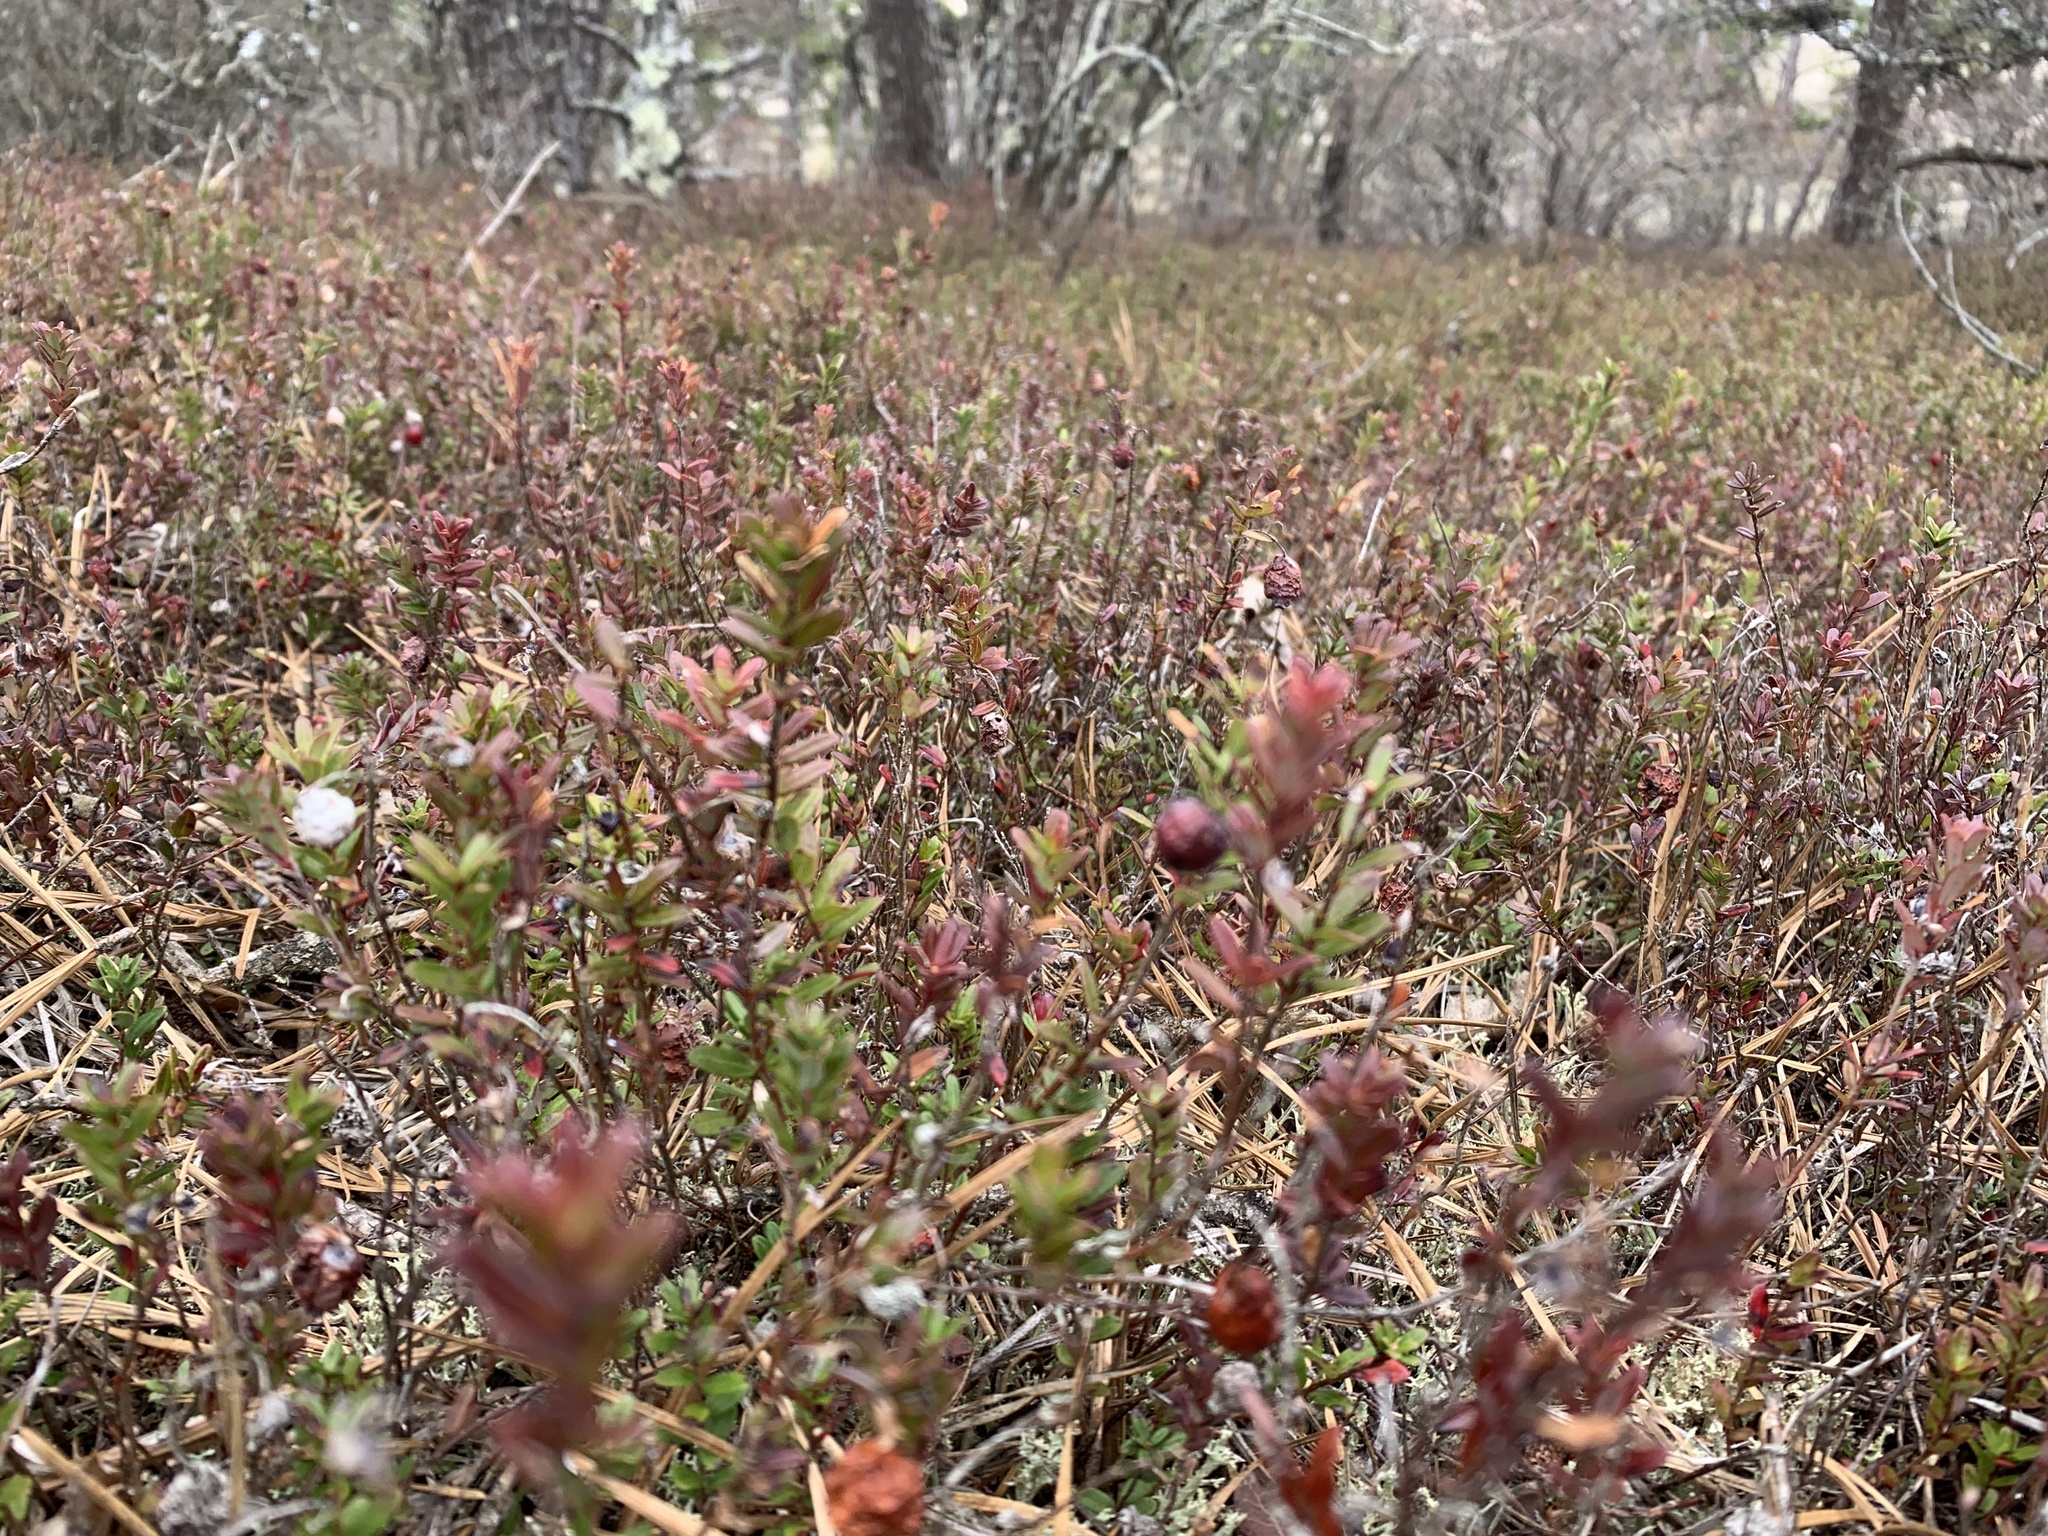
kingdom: Plantae
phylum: Tracheophyta
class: Magnoliopsida
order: Ericales
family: Ericaceae
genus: Vaccinium
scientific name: Vaccinium macrocarpon
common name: American cranberry
